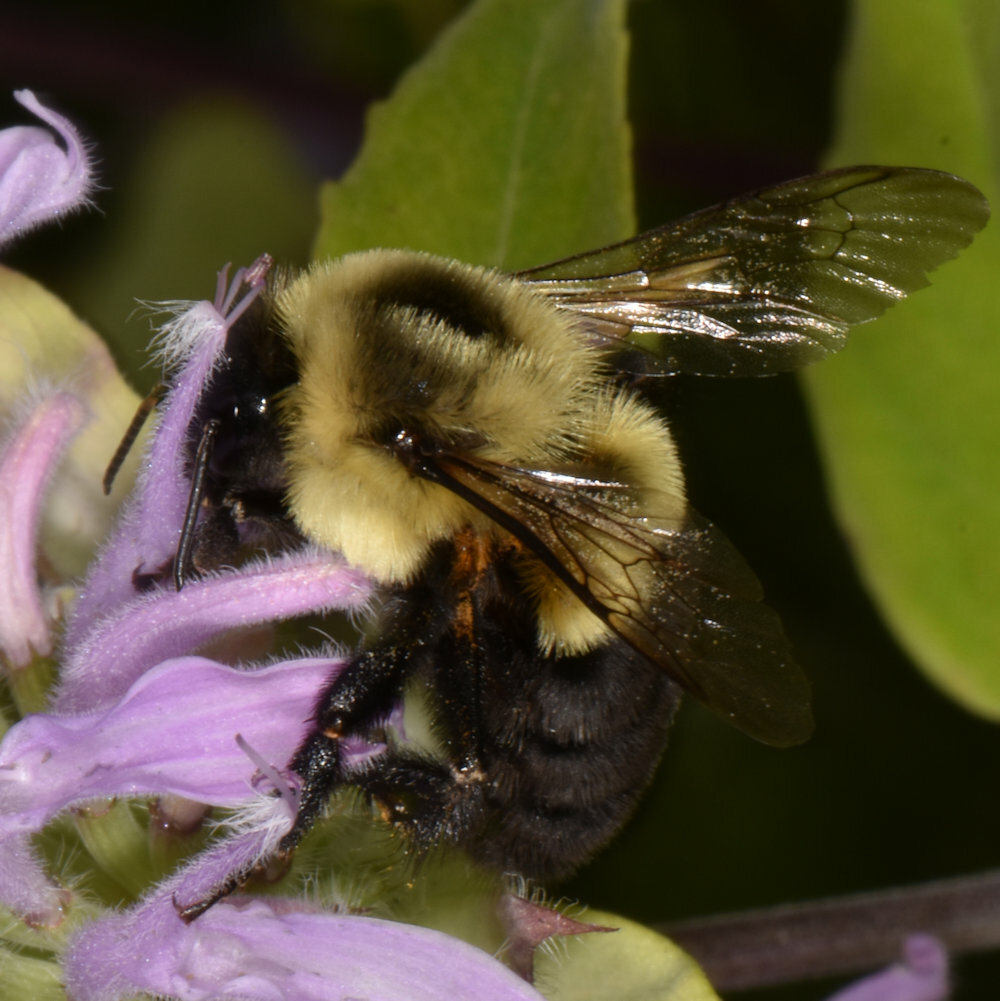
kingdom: Animalia
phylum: Arthropoda
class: Insecta
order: Hymenoptera
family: Apidae
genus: Bombus
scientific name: Bombus impatiens
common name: Common eastern bumble bee
